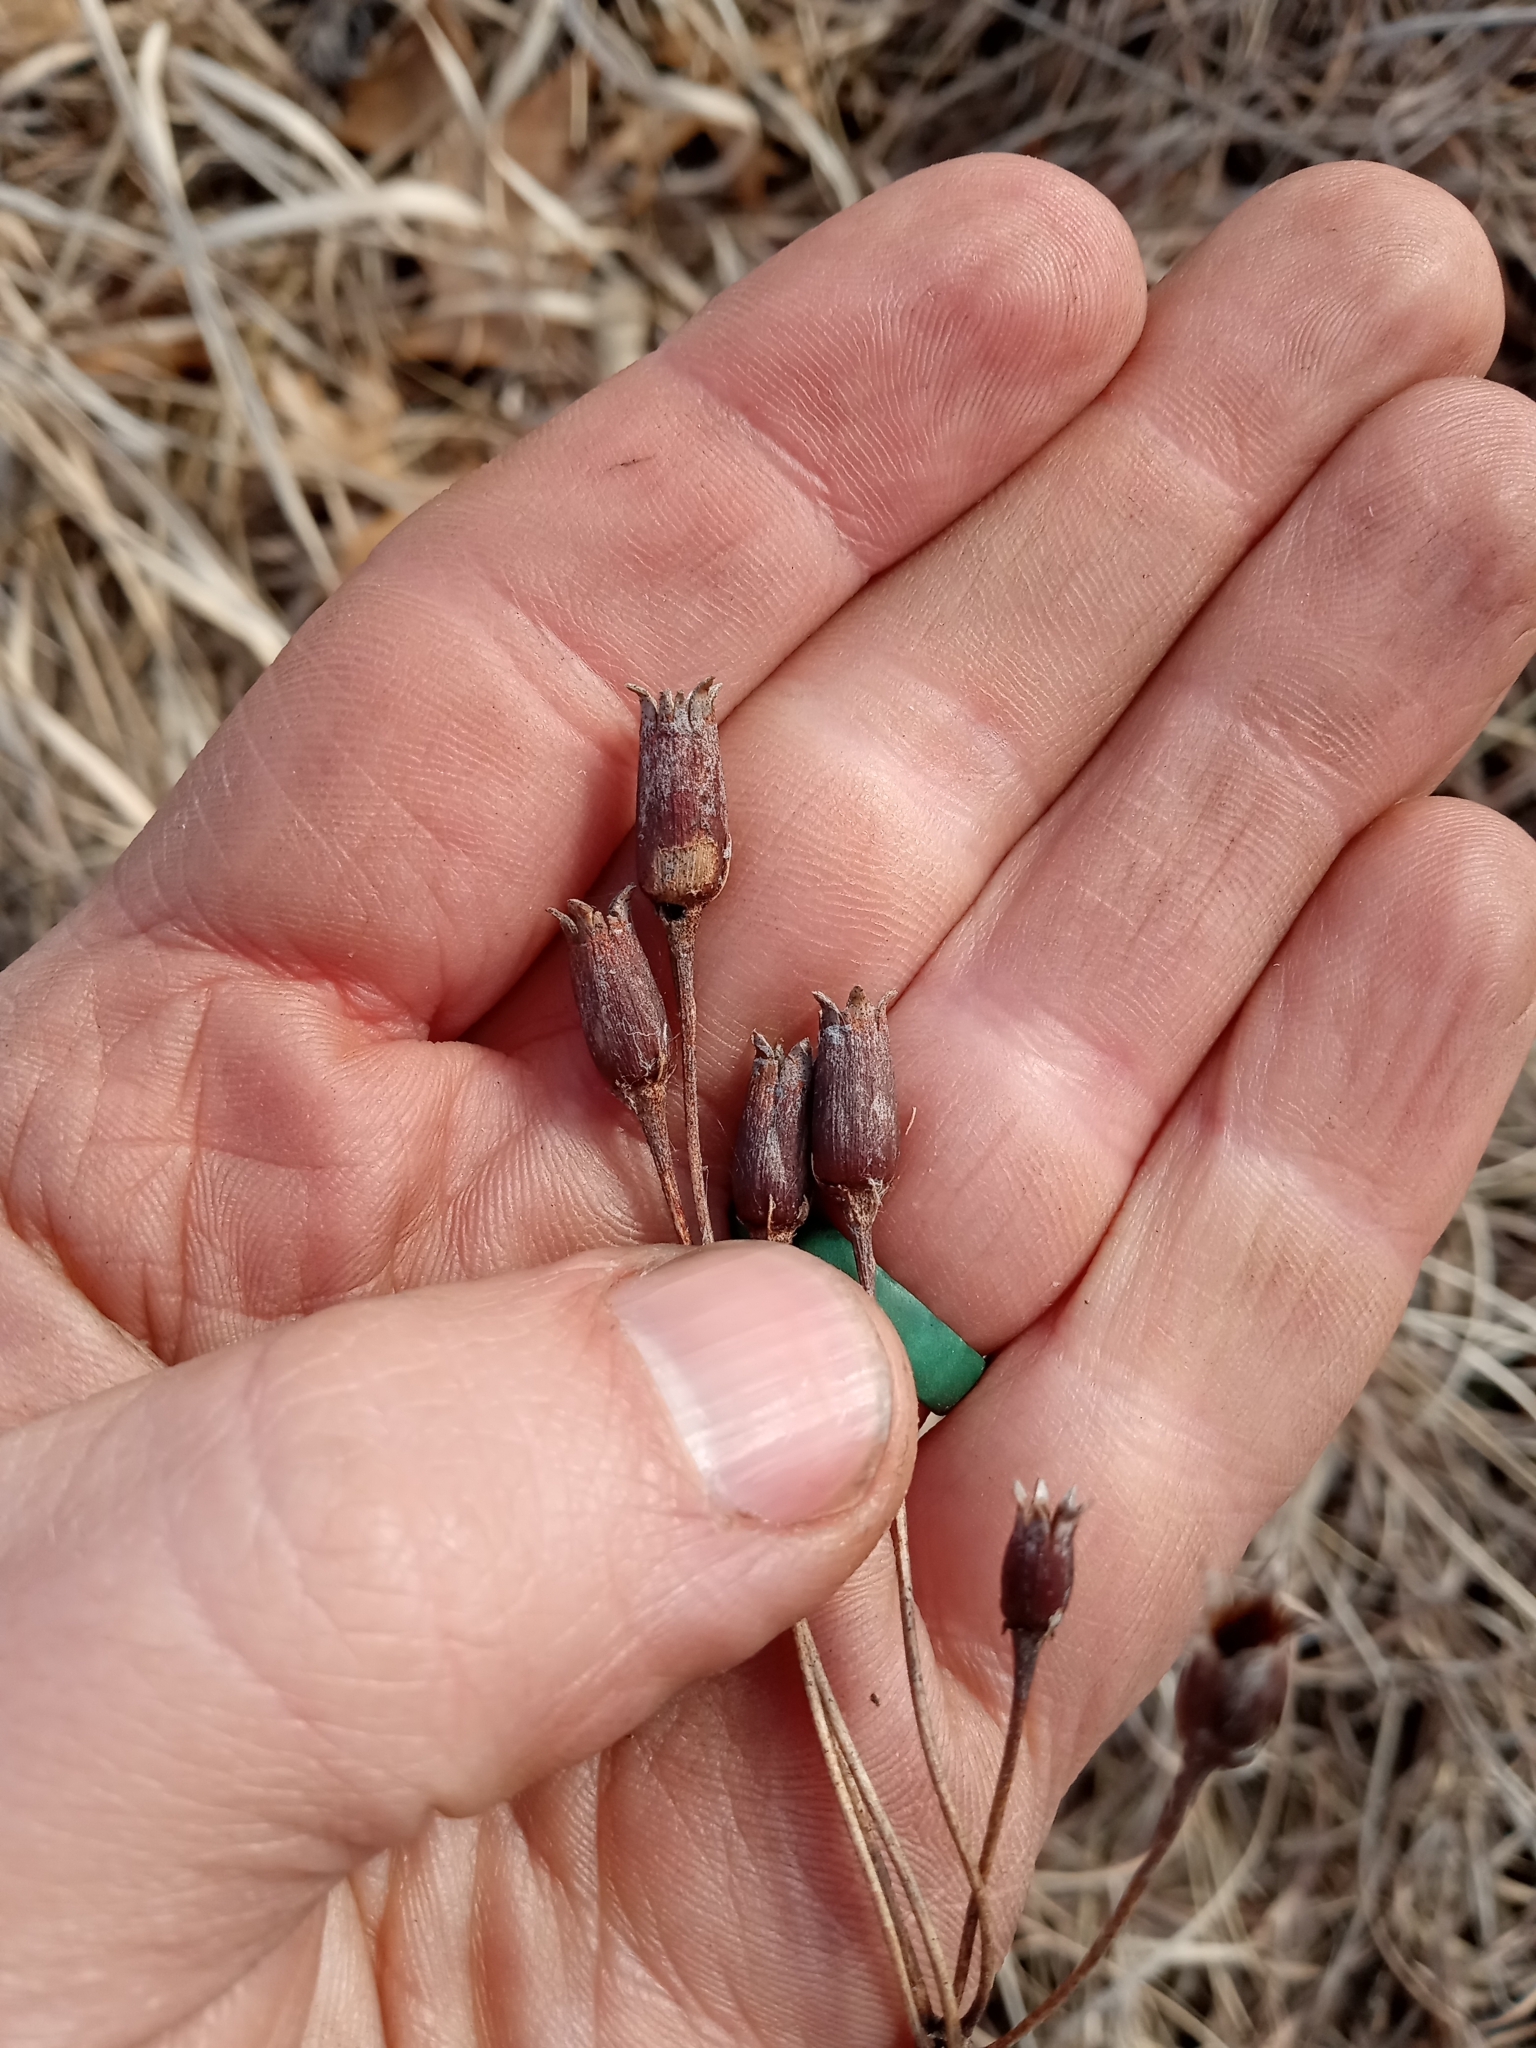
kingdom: Plantae
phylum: Tracheophyta
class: Magnoliopsida
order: Ericales
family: Primulaceae
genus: Dodecatheon
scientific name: Dodecatheon meadia
